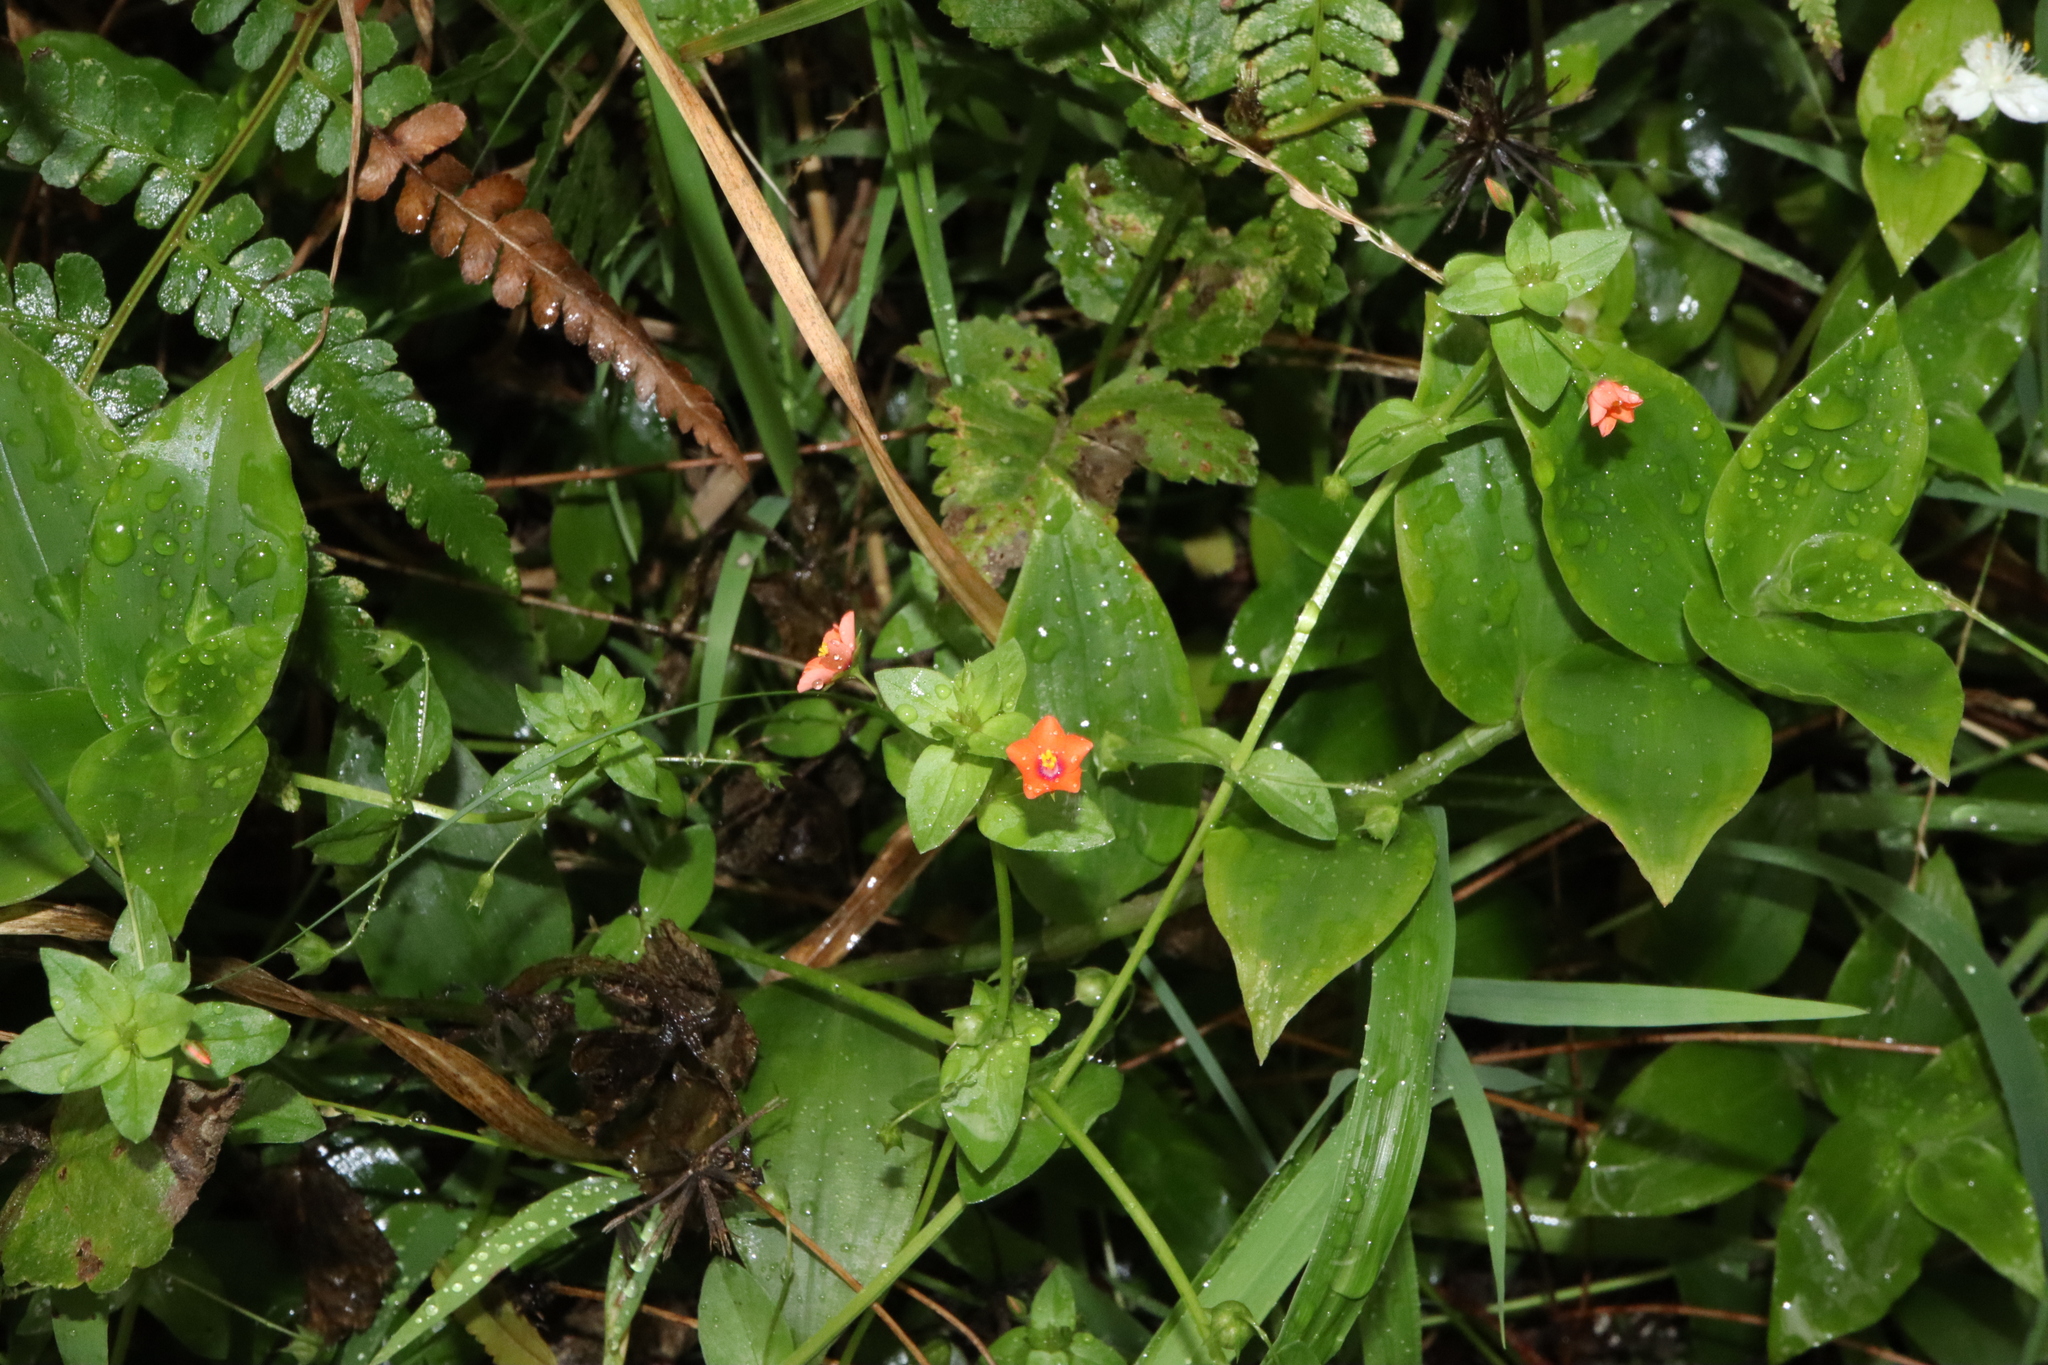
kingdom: Plantae
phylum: Tracheophyta
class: Magnoliopsida
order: Ericales
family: Primulaceae
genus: Lysimachia
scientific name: Lysimachia arvensis
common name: Scarlet pimpernel
